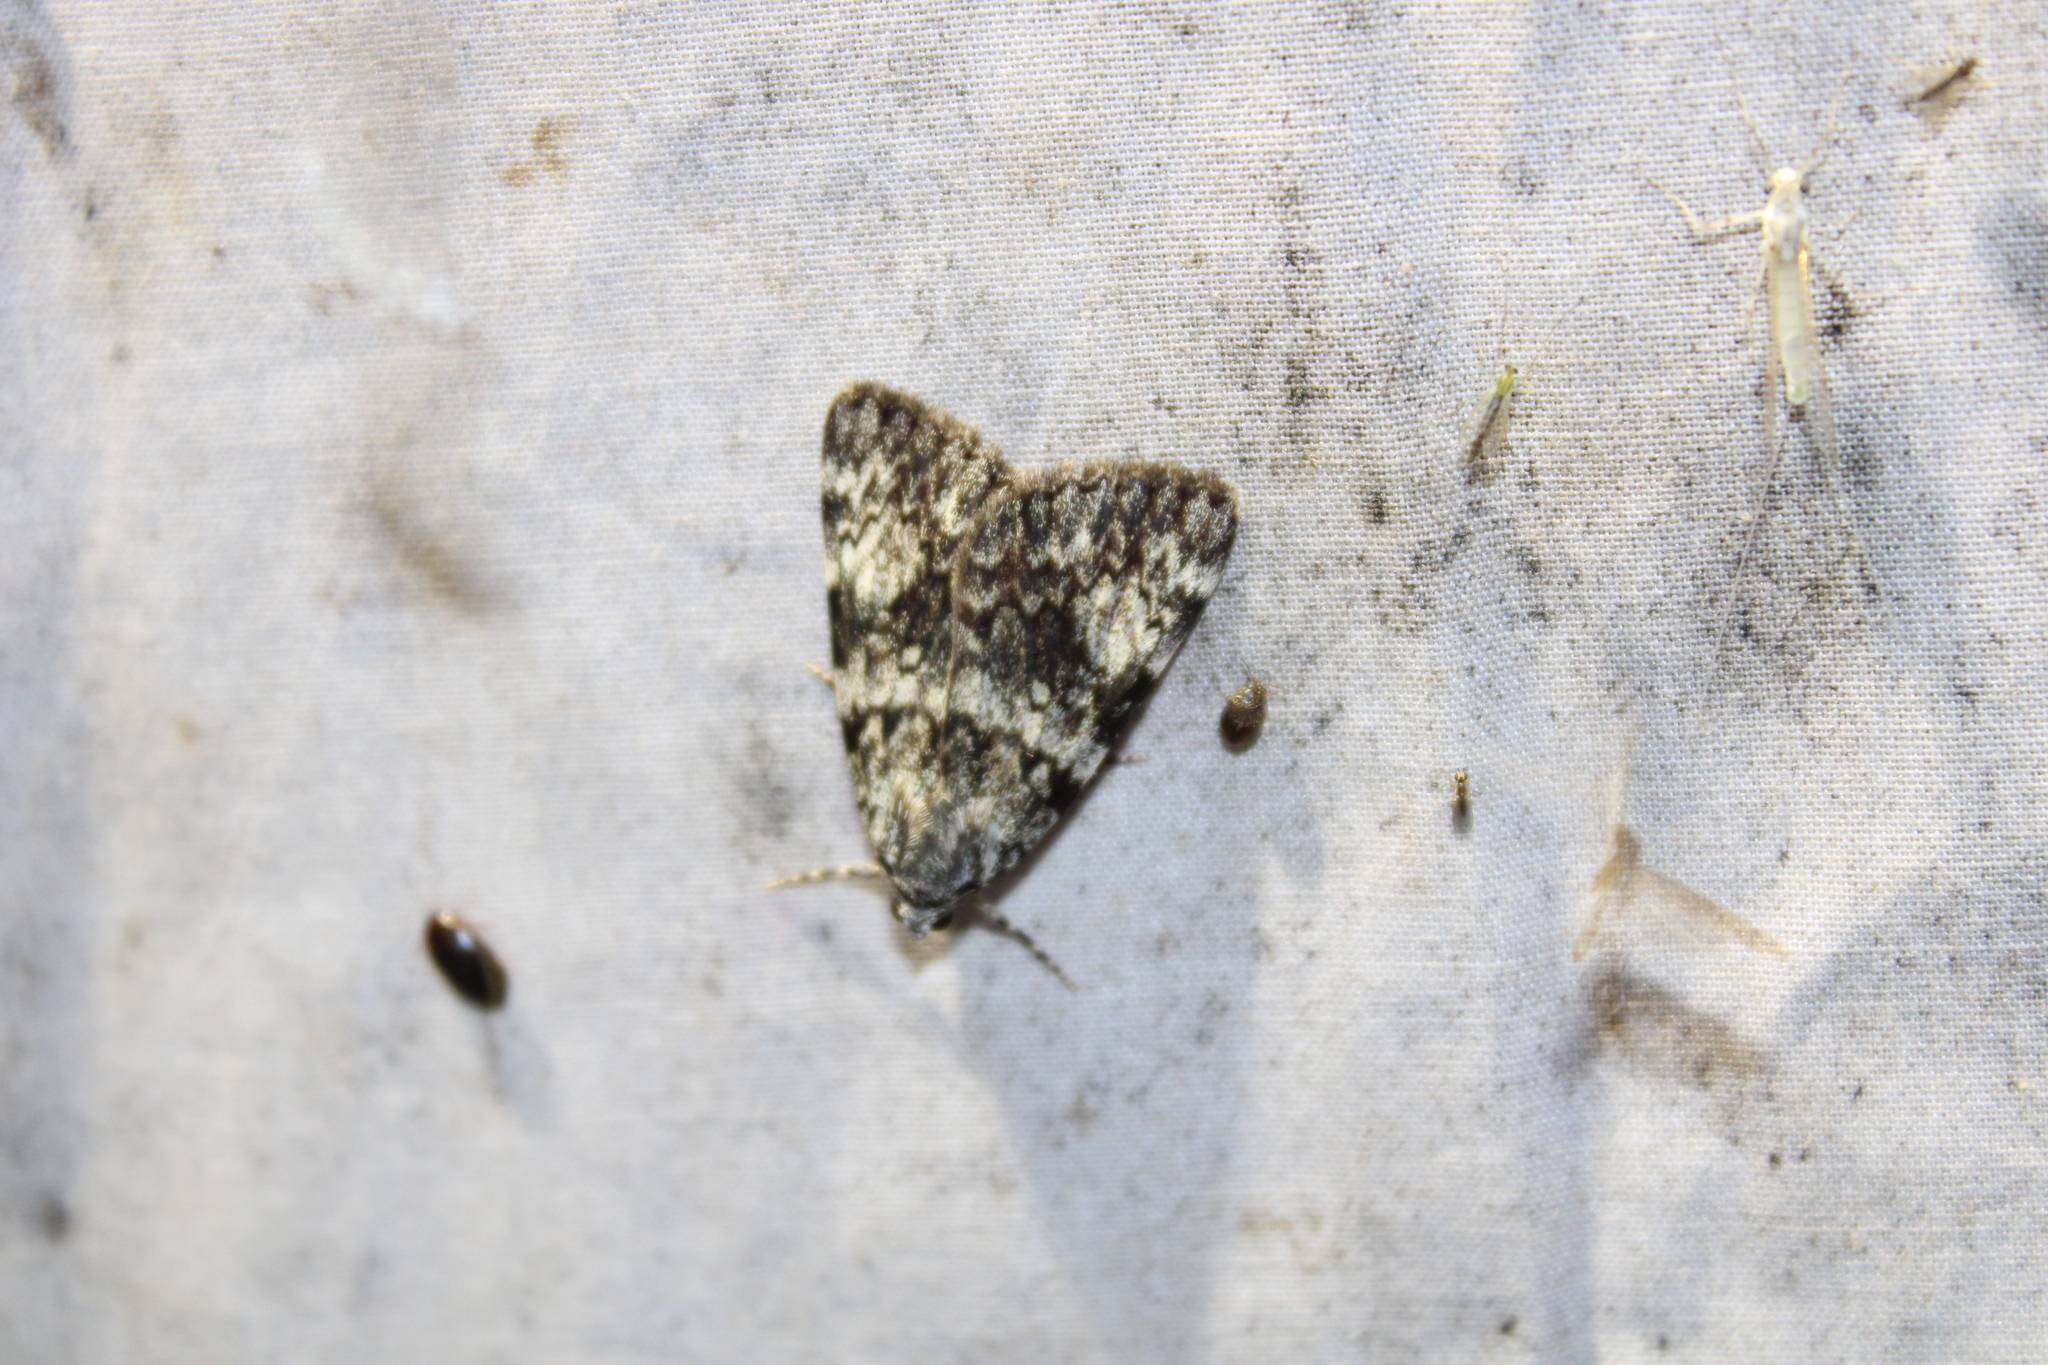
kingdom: Animalia
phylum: Arthropoda
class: Insecta
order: Lepidoptera
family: Erebidae
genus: Catocala
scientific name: Catocala lineella
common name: Little lined underwing
